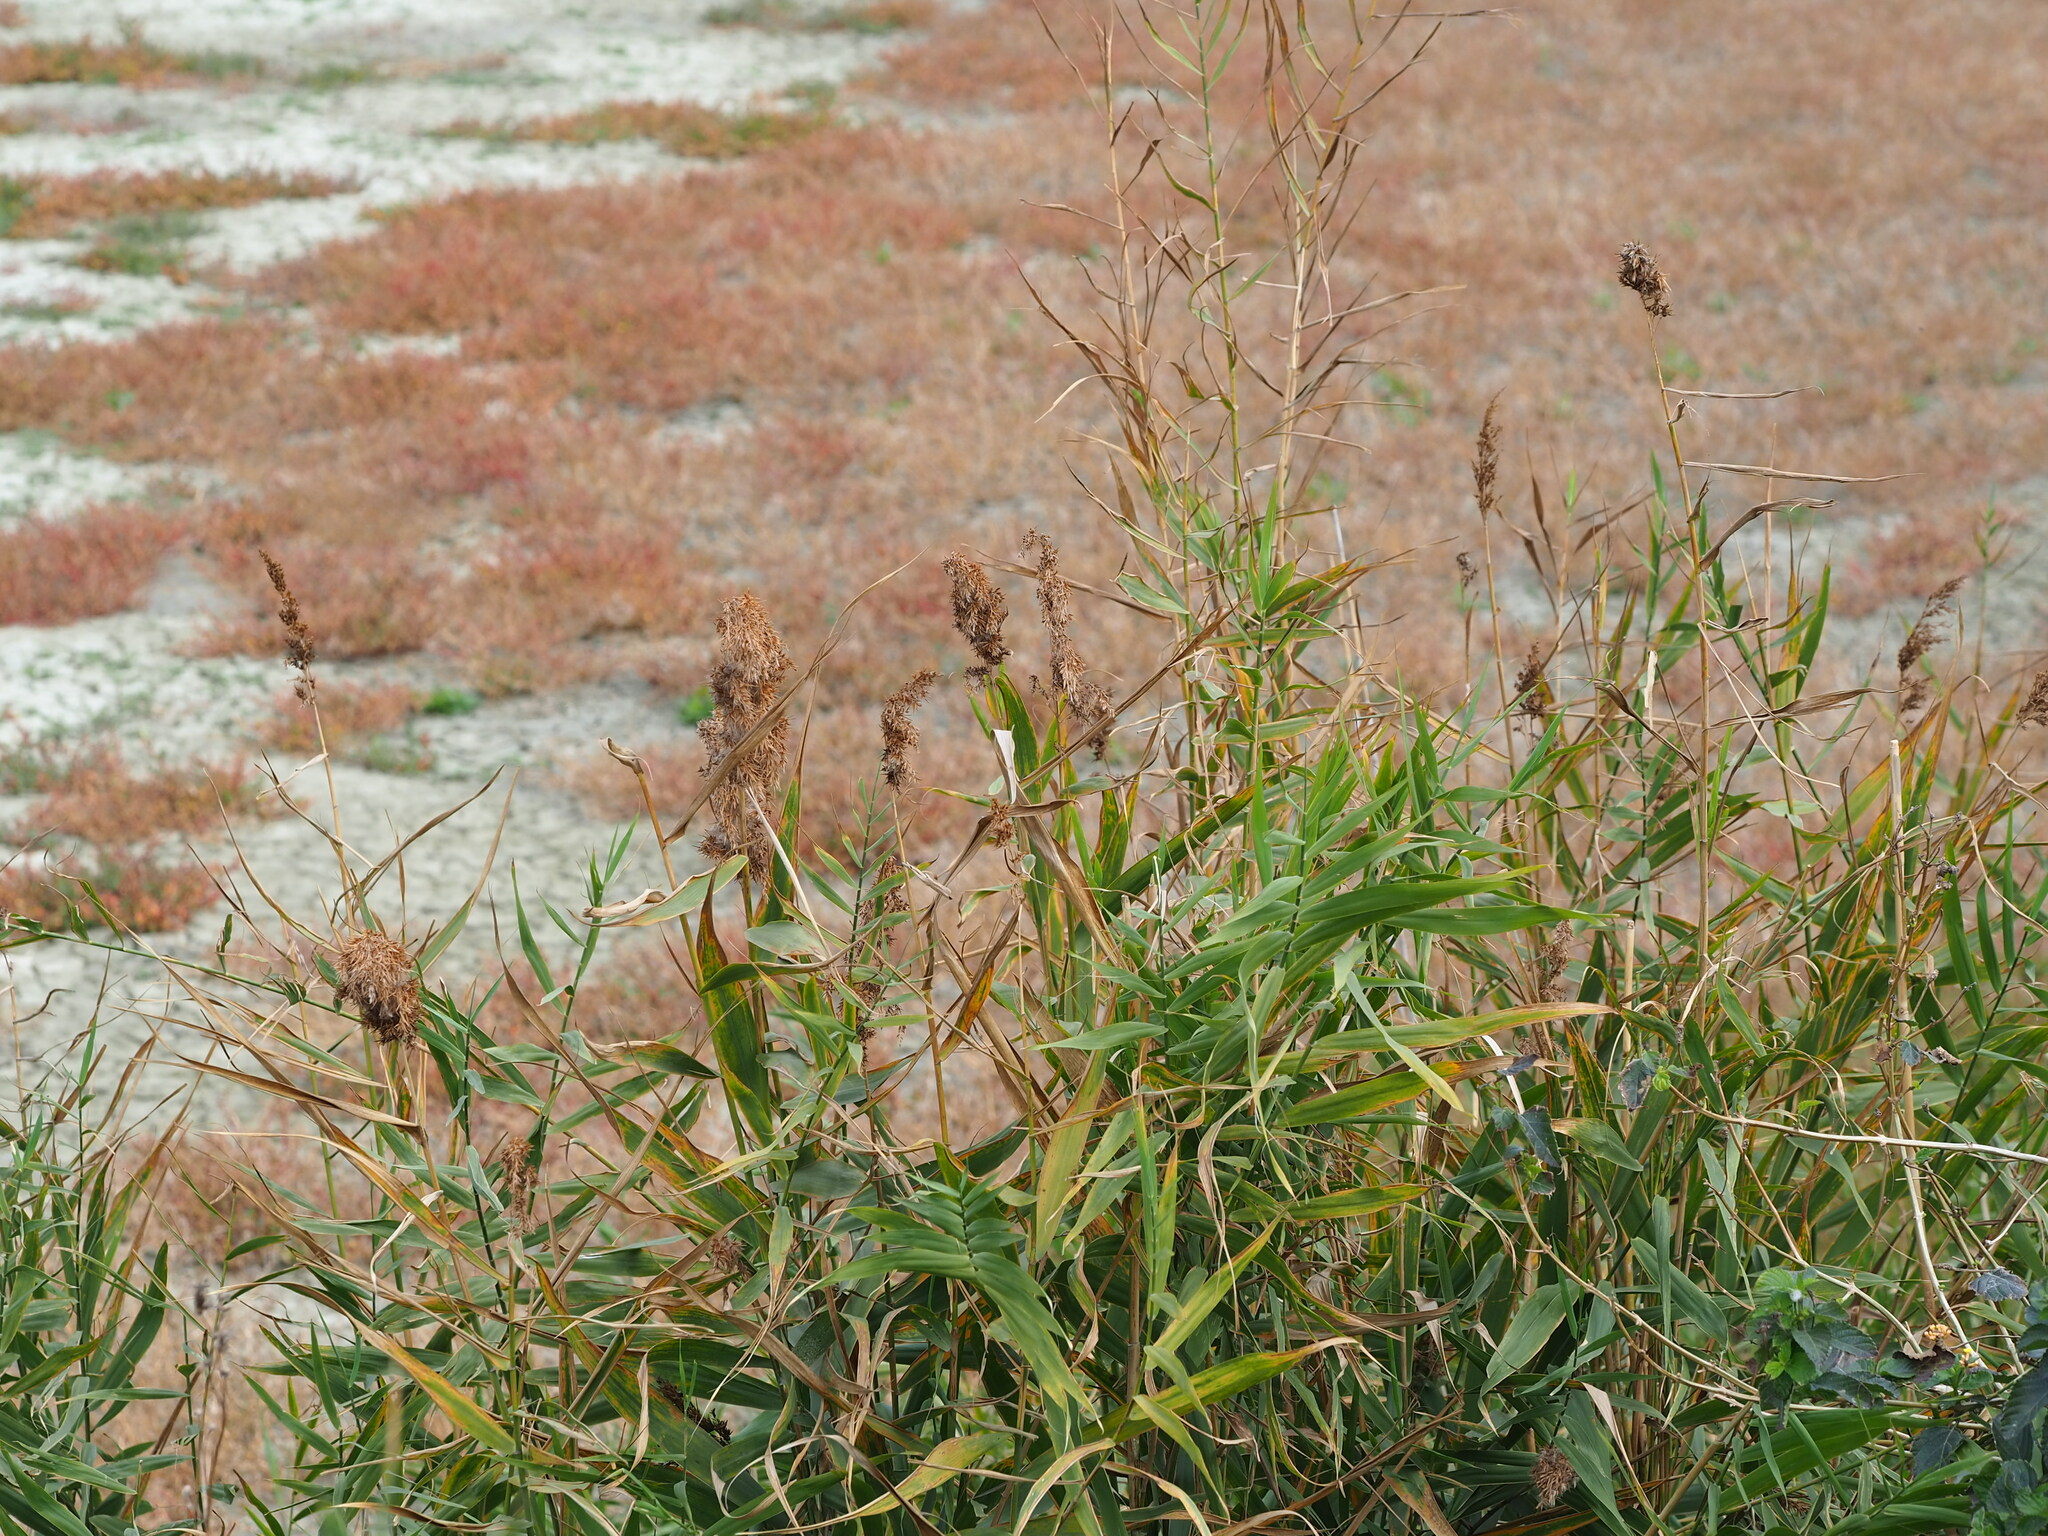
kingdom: Plantae
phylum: Tracheophyta
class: Liliopsida
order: Poales
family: Poaceae
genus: Phragmites
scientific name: Phragmites australis
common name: Common reed
